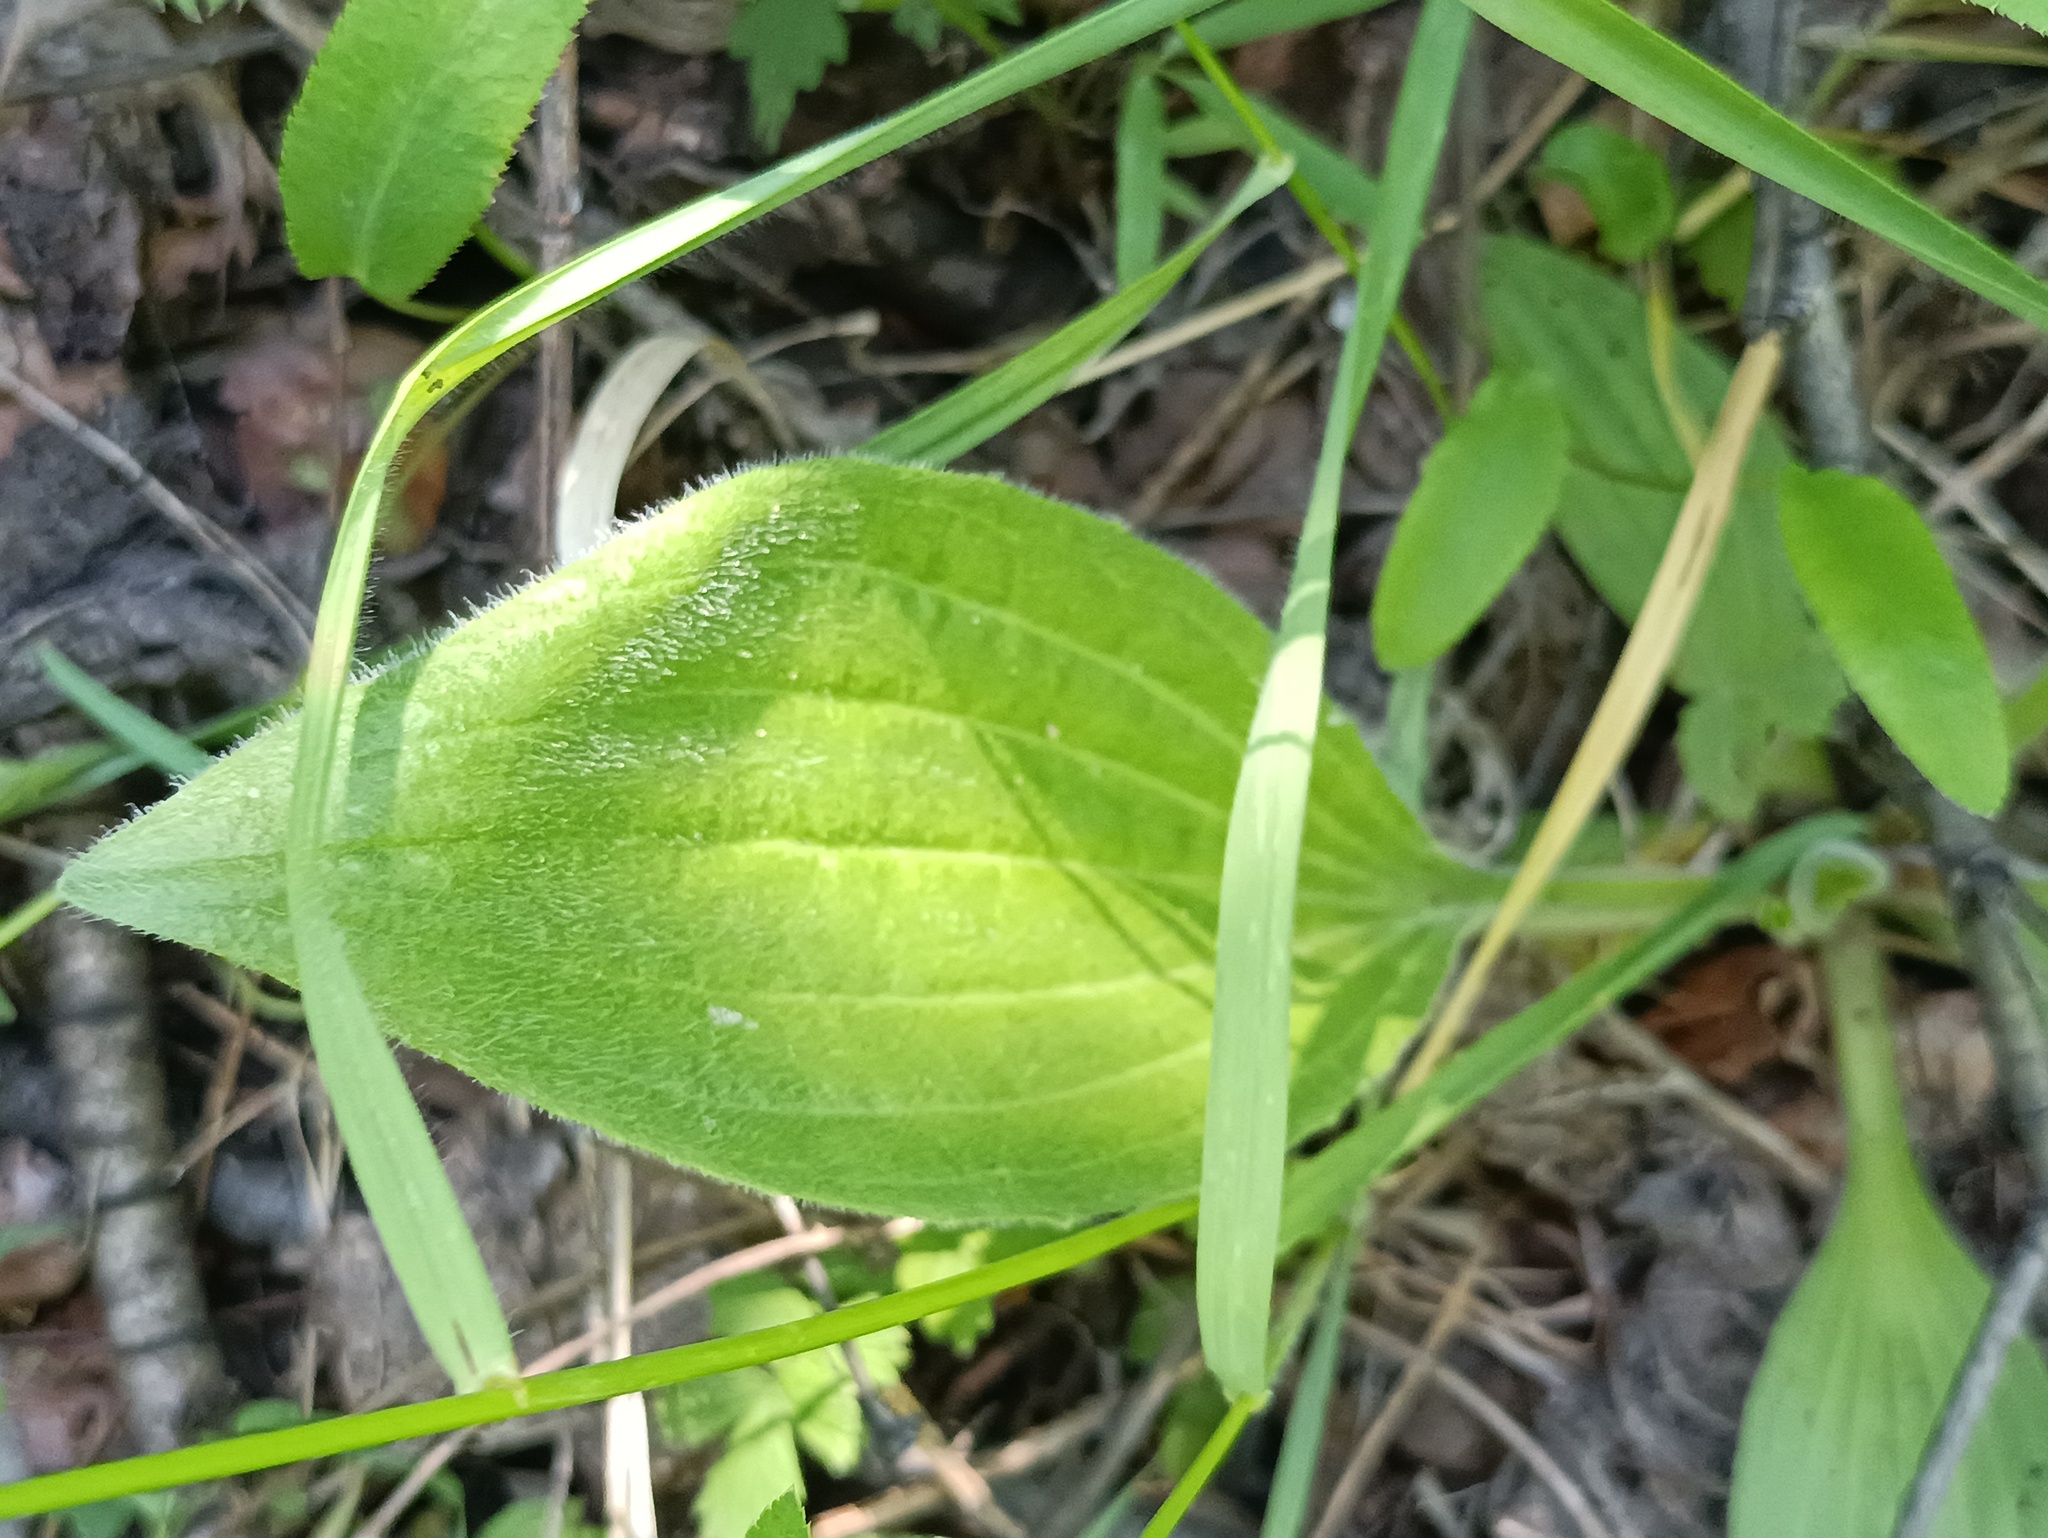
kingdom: Plantae
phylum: Tracheophyta
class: Magnoliopsida
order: Lamiales
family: Plantaginaceae
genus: Plantago
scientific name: Plantago urvillei
